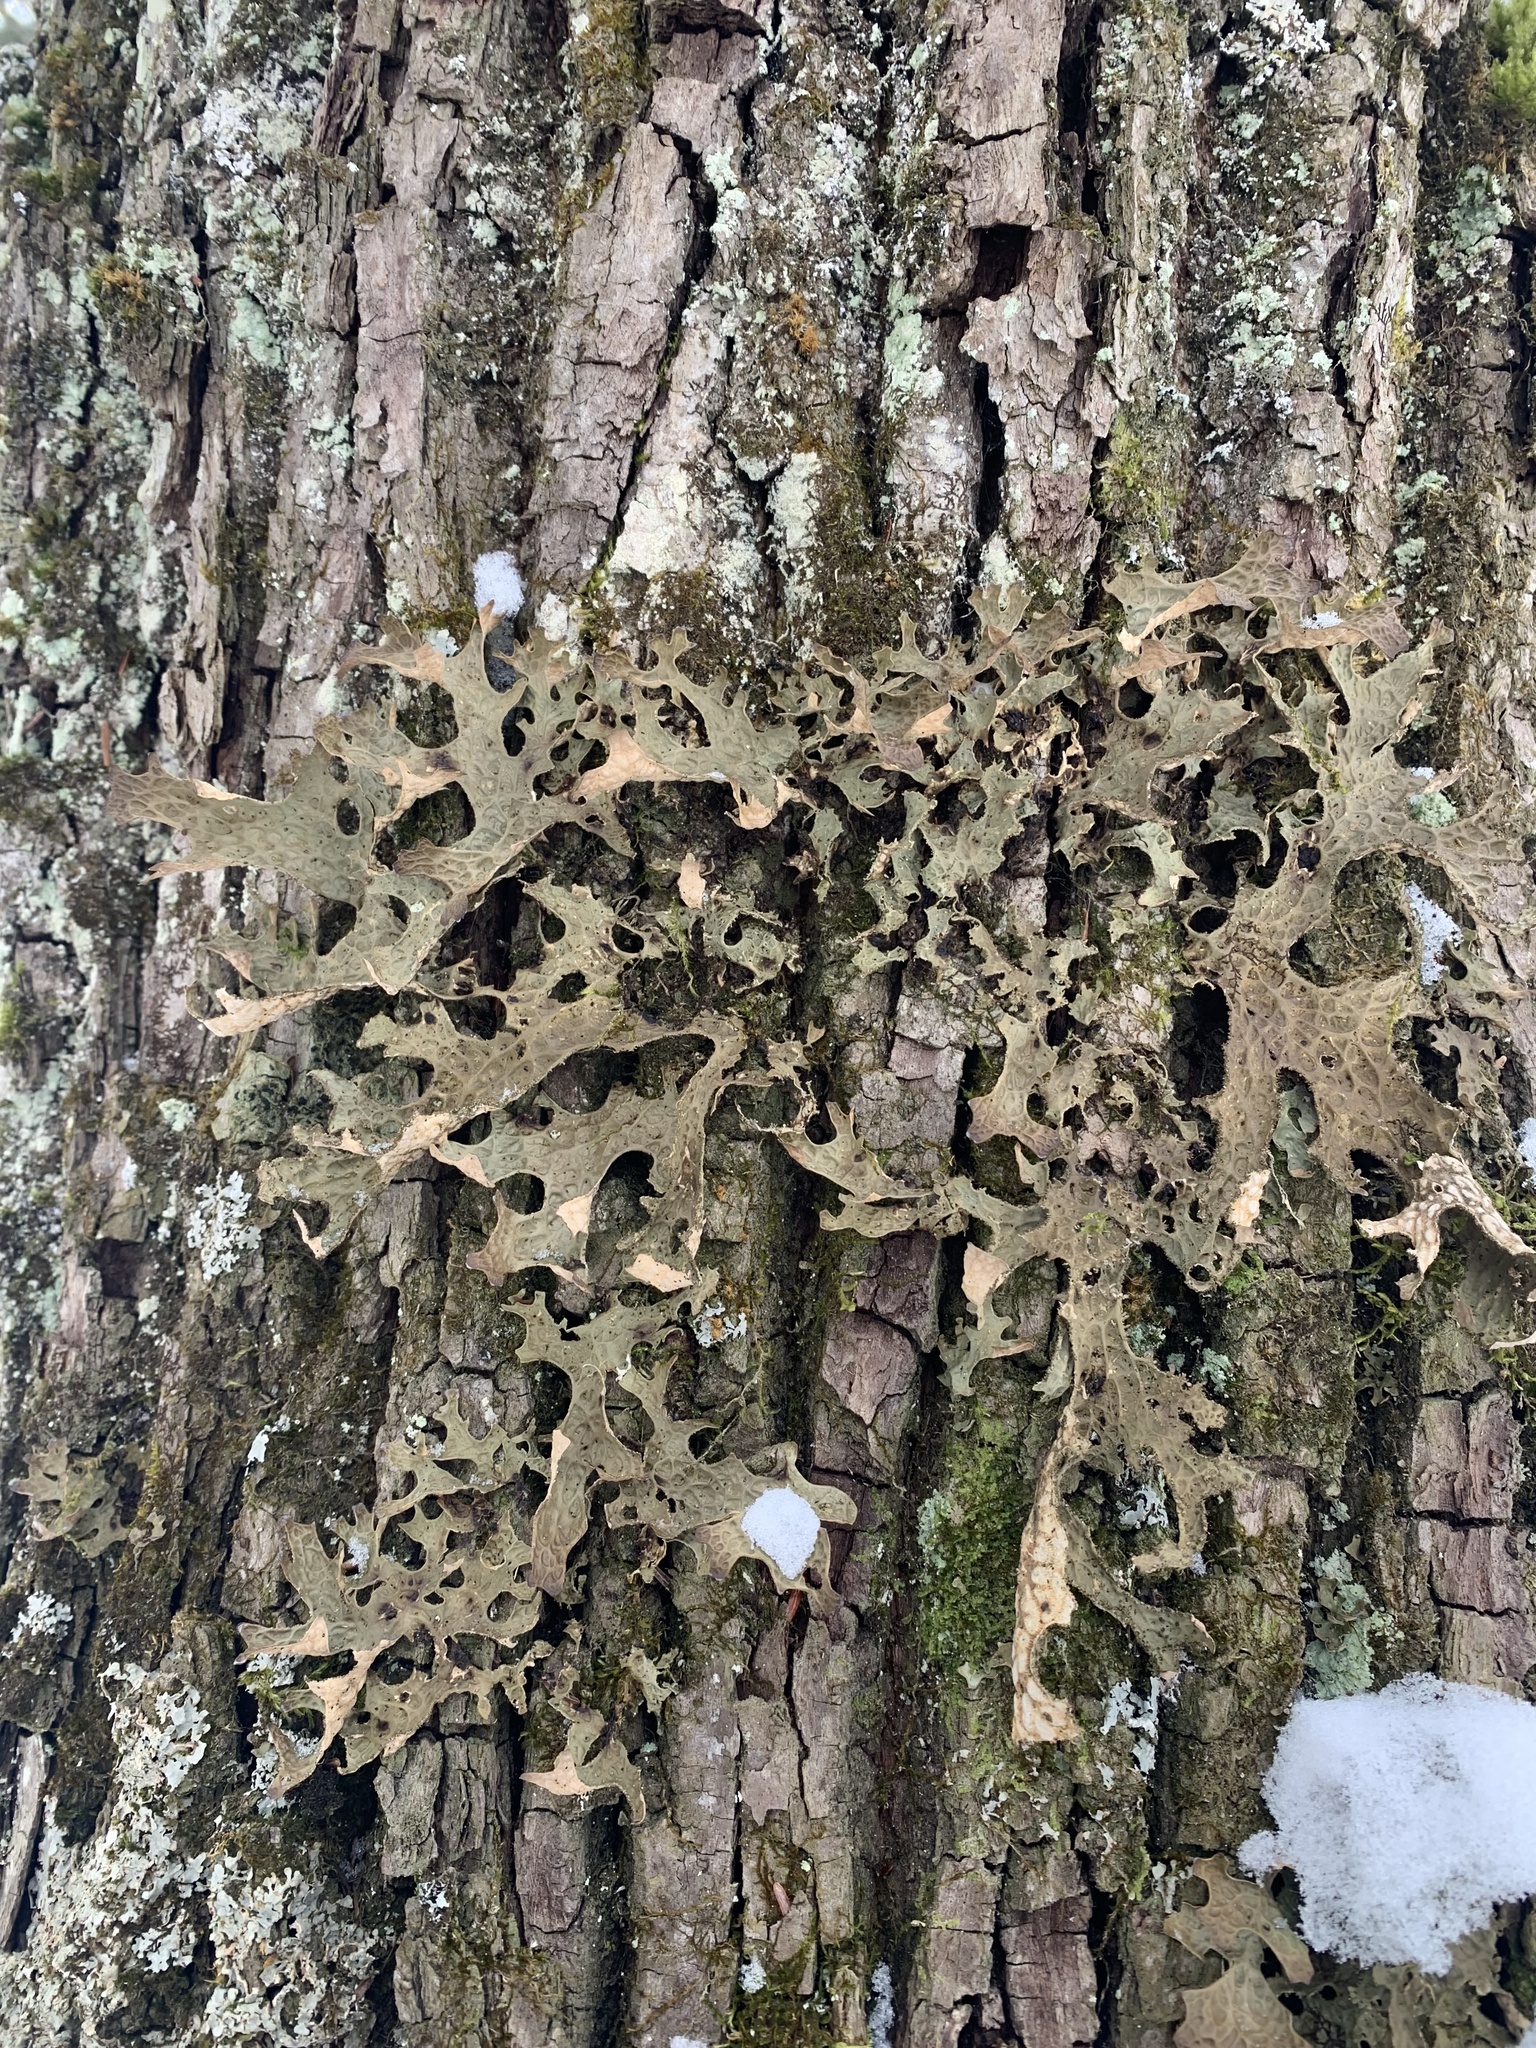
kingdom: Fungi
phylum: Ascomycota
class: Lecanoromycetes
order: Peltigerales
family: Lobariaceae
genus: Lobaria
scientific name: Lobaria pulmonaria
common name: Lungwort
